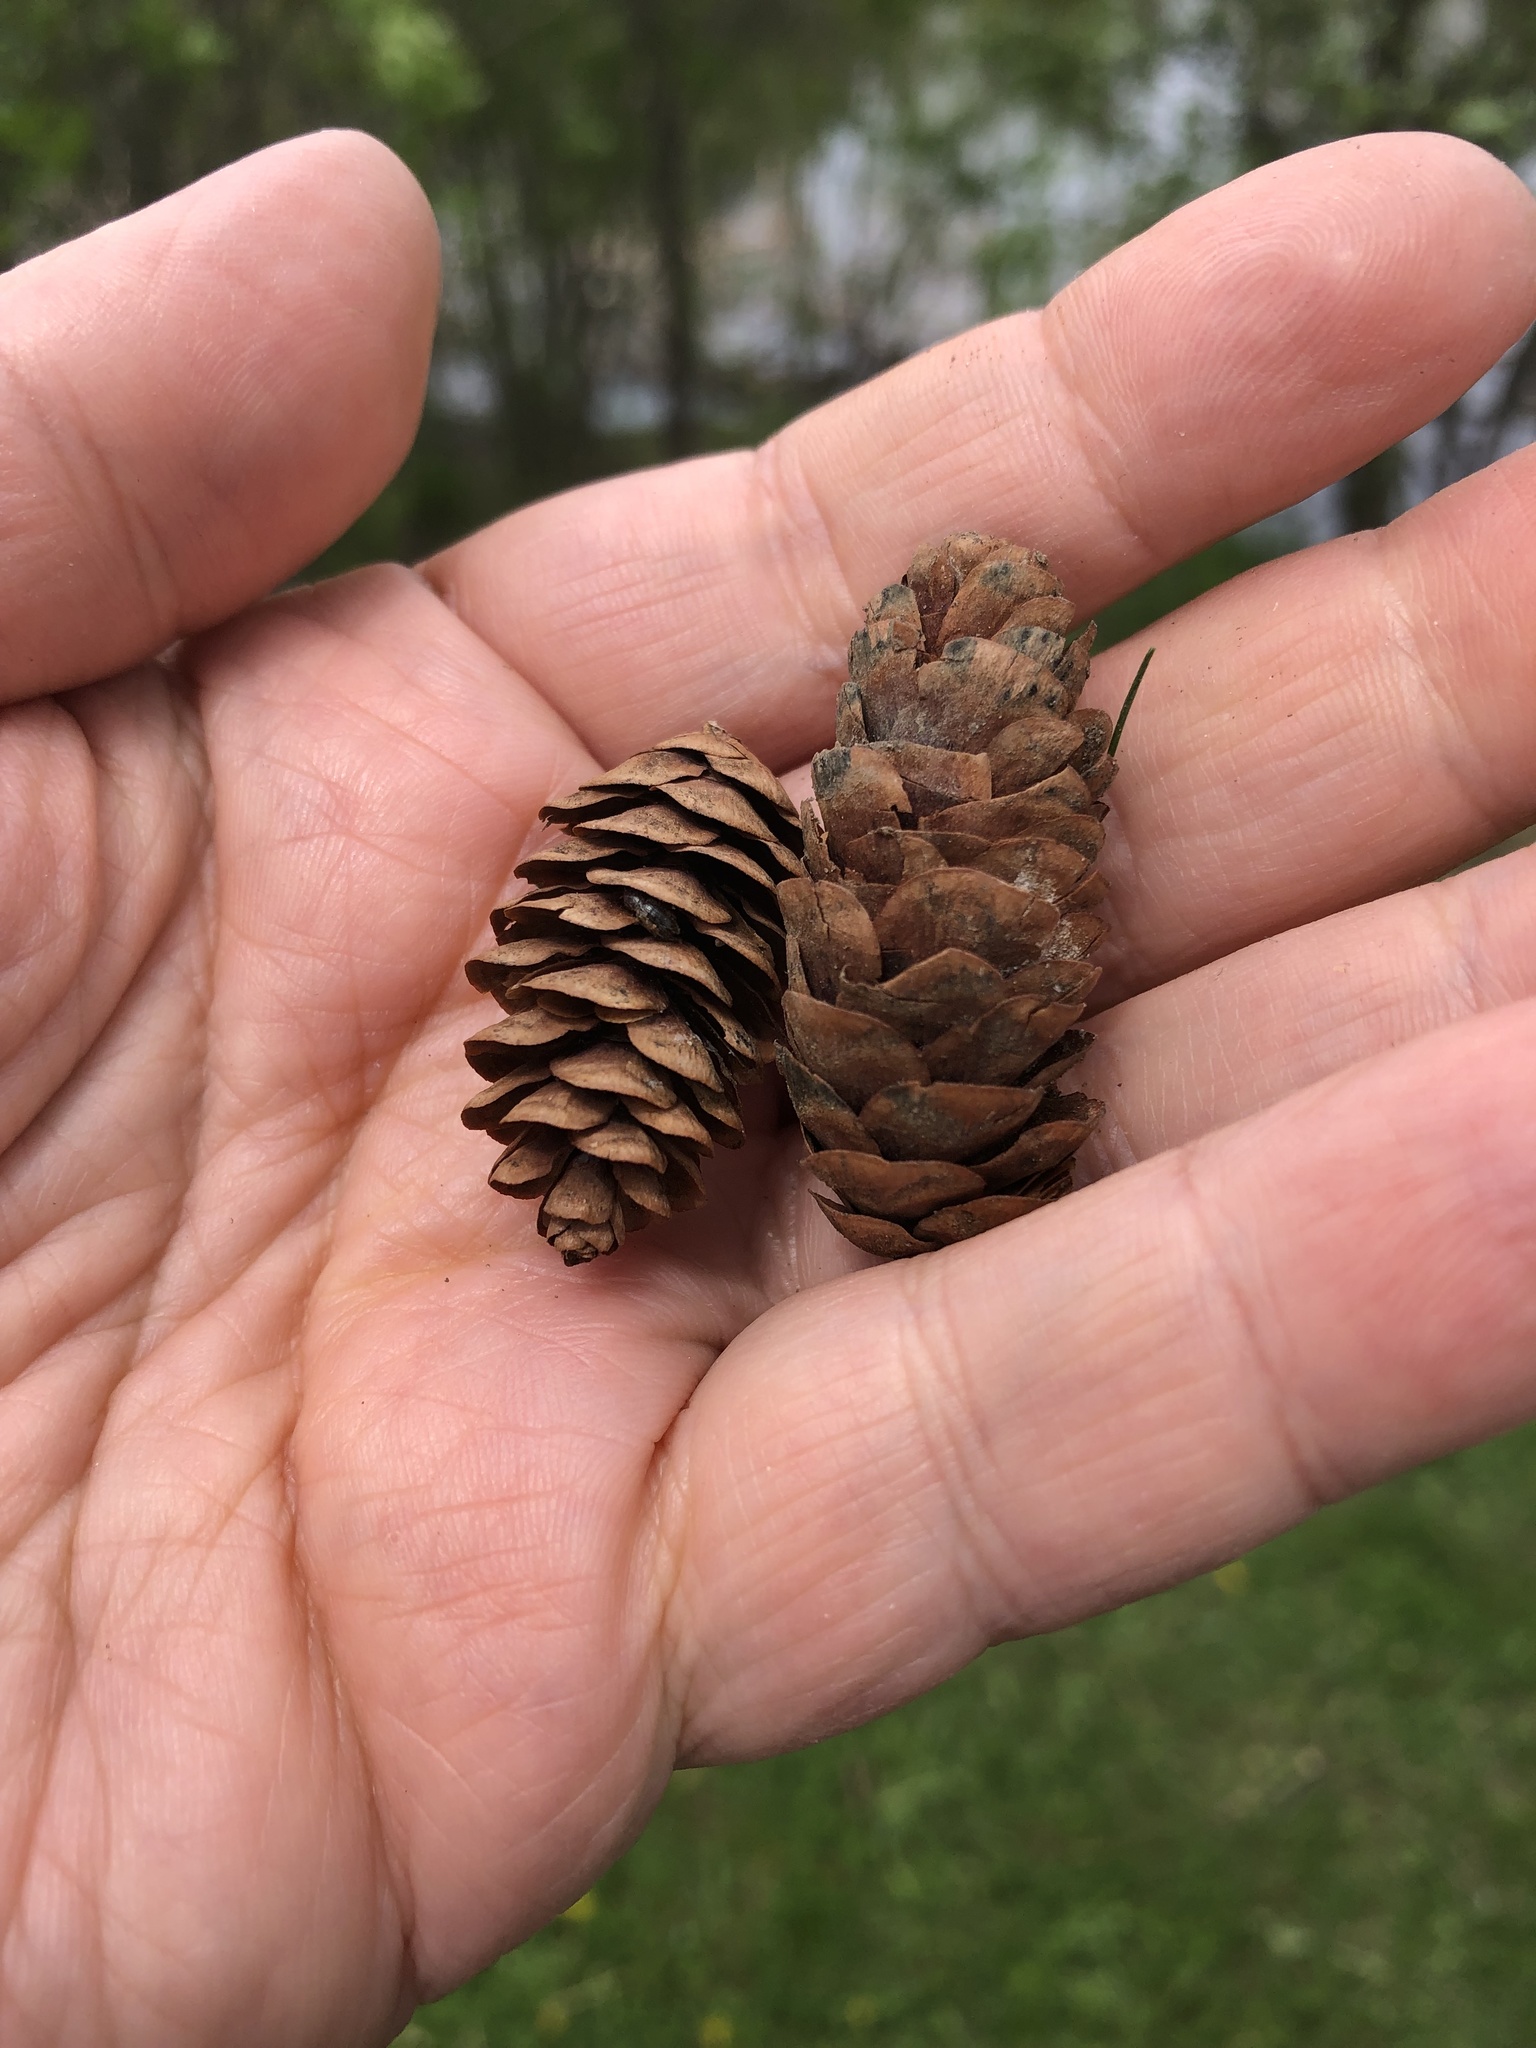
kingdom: Plantae
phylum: Tracheophyta
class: Pinopsida
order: Pinales
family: Pinaceae
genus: Picea
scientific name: Picea glauca
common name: White spruce
